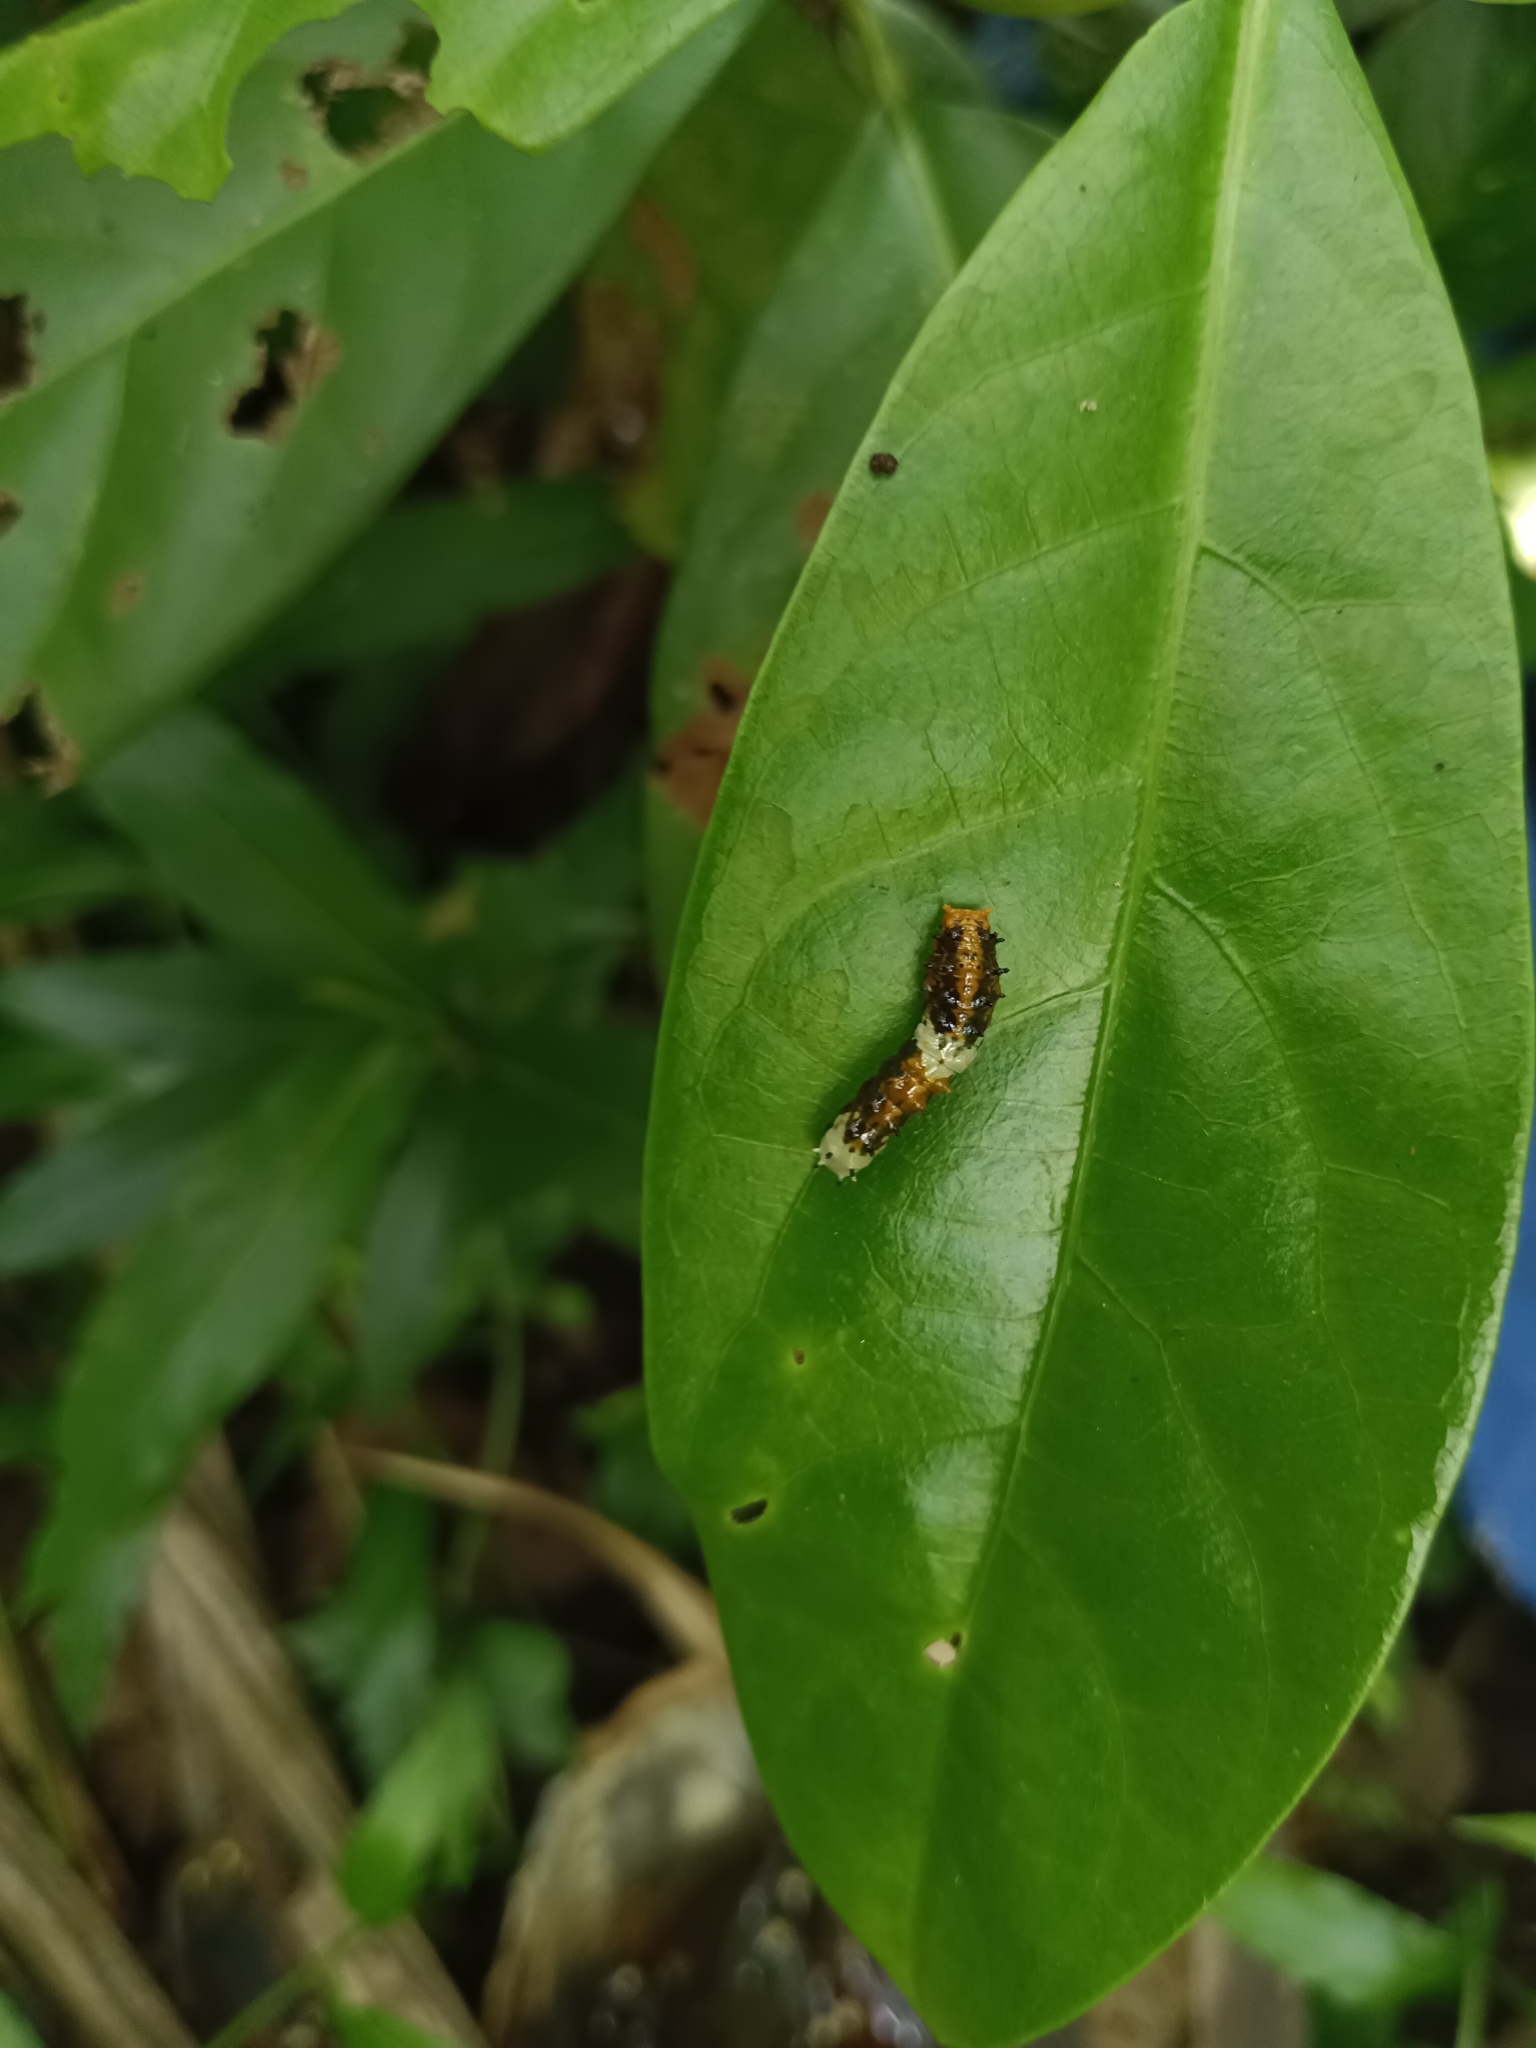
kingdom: Animalia
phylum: Arthropoda
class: Insecta
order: Lepidoptera
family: Papilionidae
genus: Chilasa
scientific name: Chilasa clytia
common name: Common mime
